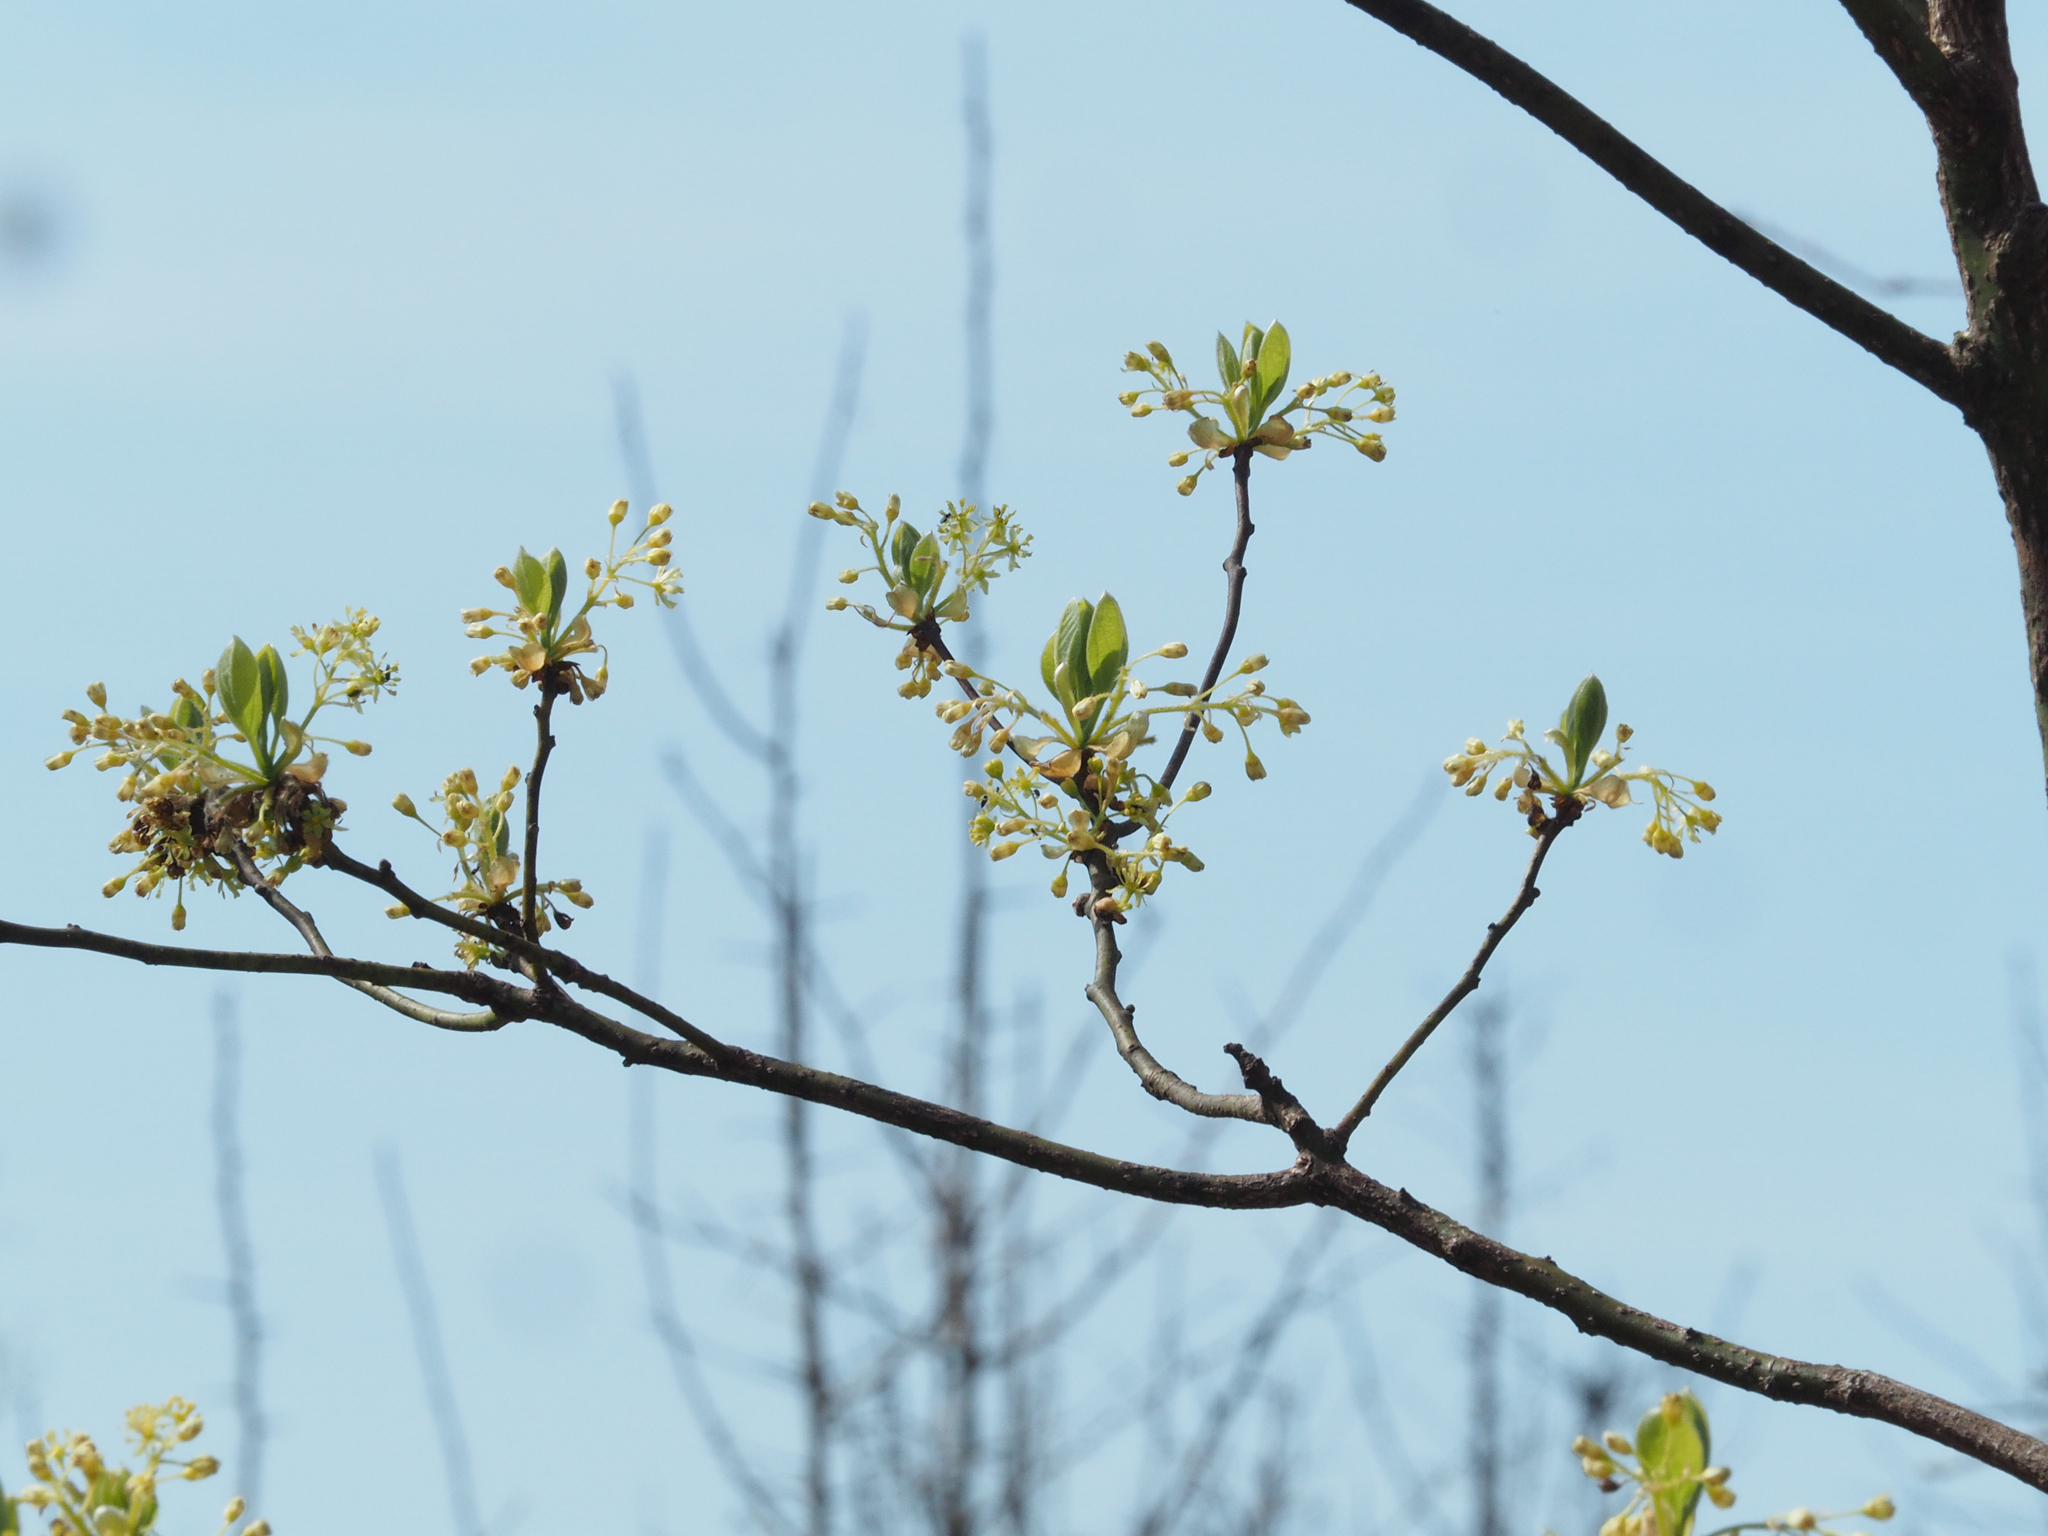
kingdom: Plantae
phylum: Tracheophyta
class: Magnoliopsida
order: Laurales
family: Lauraceae
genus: Sassafras
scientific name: Sassafras albidum
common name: Sassafras
